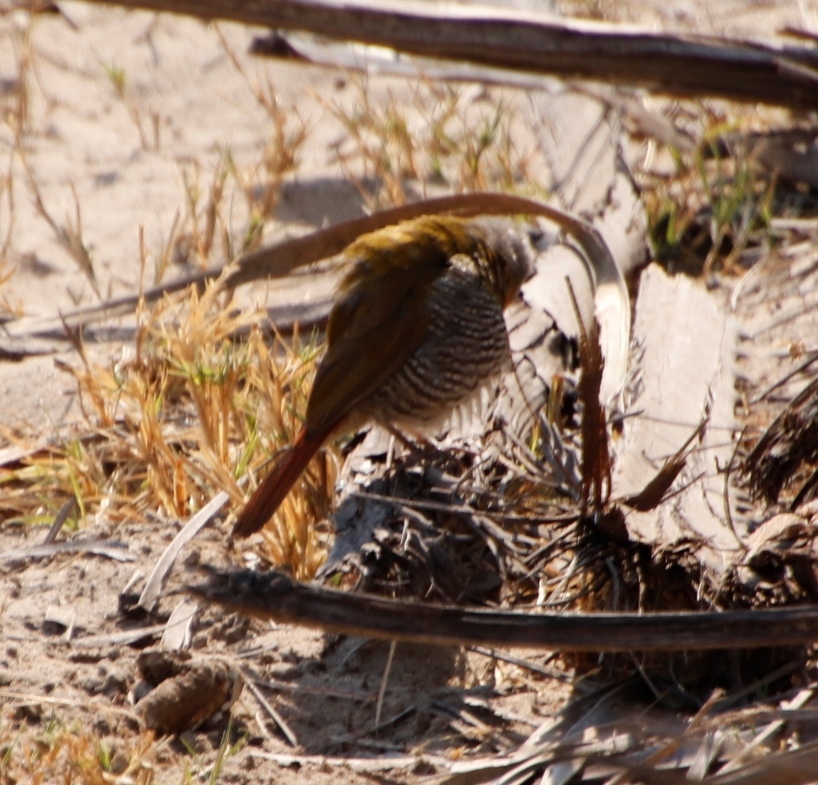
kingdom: Animalia
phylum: Chordata
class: Aves
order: Passeriformes
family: Estrildidae
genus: Pytilia
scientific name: Pytilia melba
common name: Green-winged pytilia
